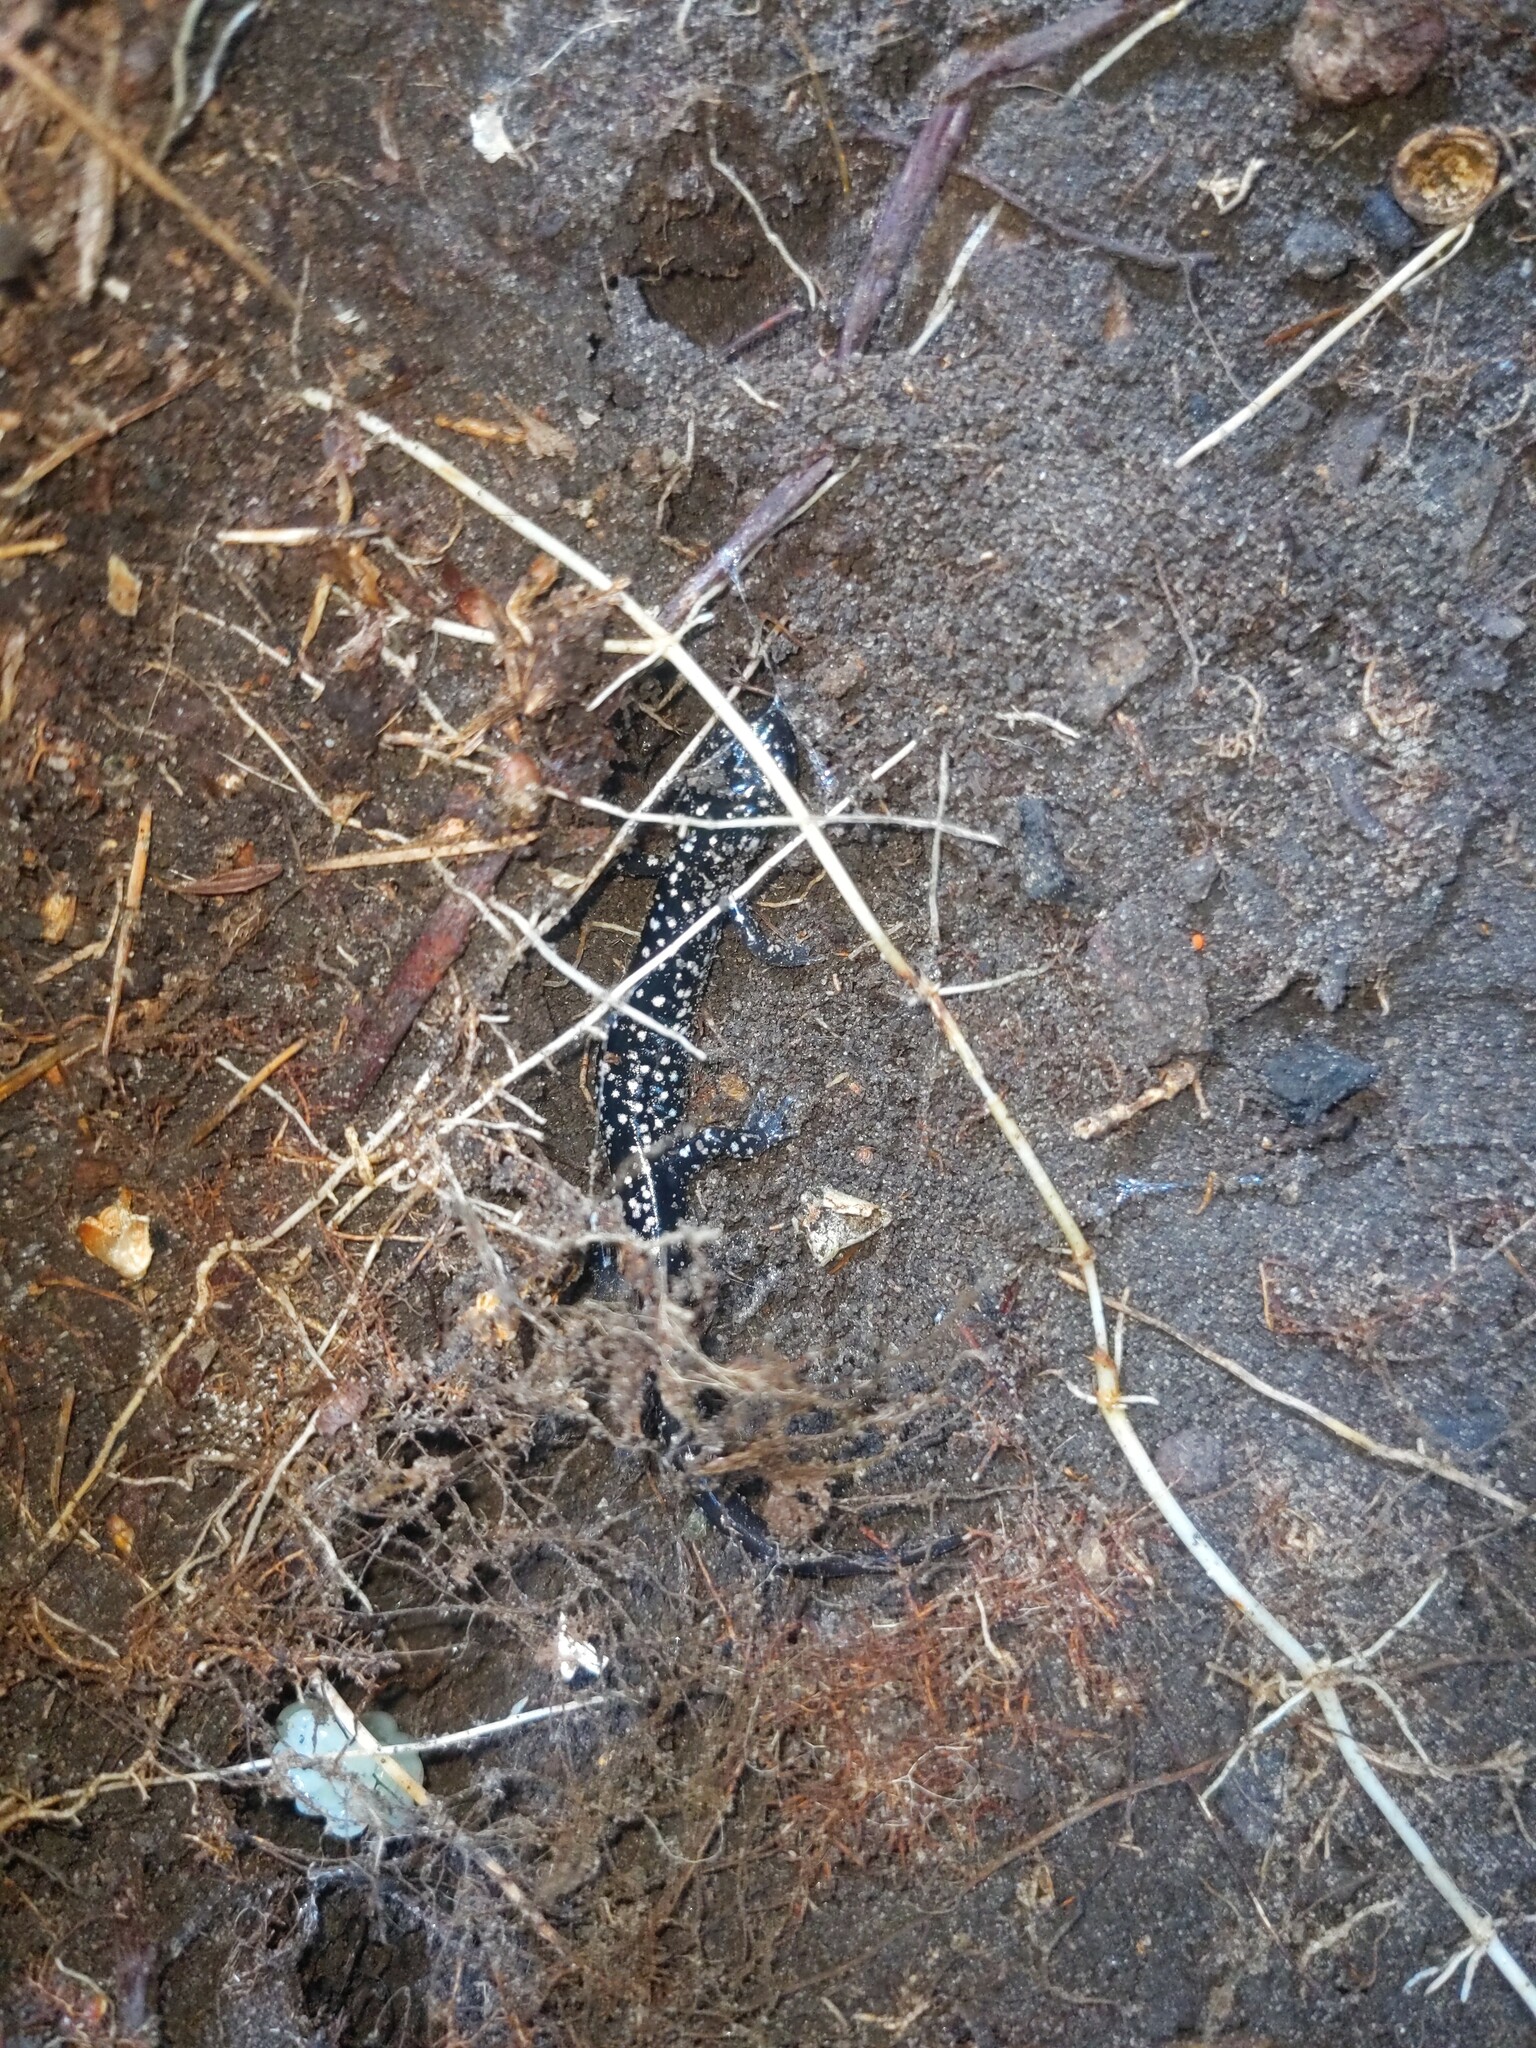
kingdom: Animalia
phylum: Chordata
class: Amphibia
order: Caudata
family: Plethodontidae
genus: Plethodon
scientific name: Plethodon glutinosus
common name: Northern slimy salamander
